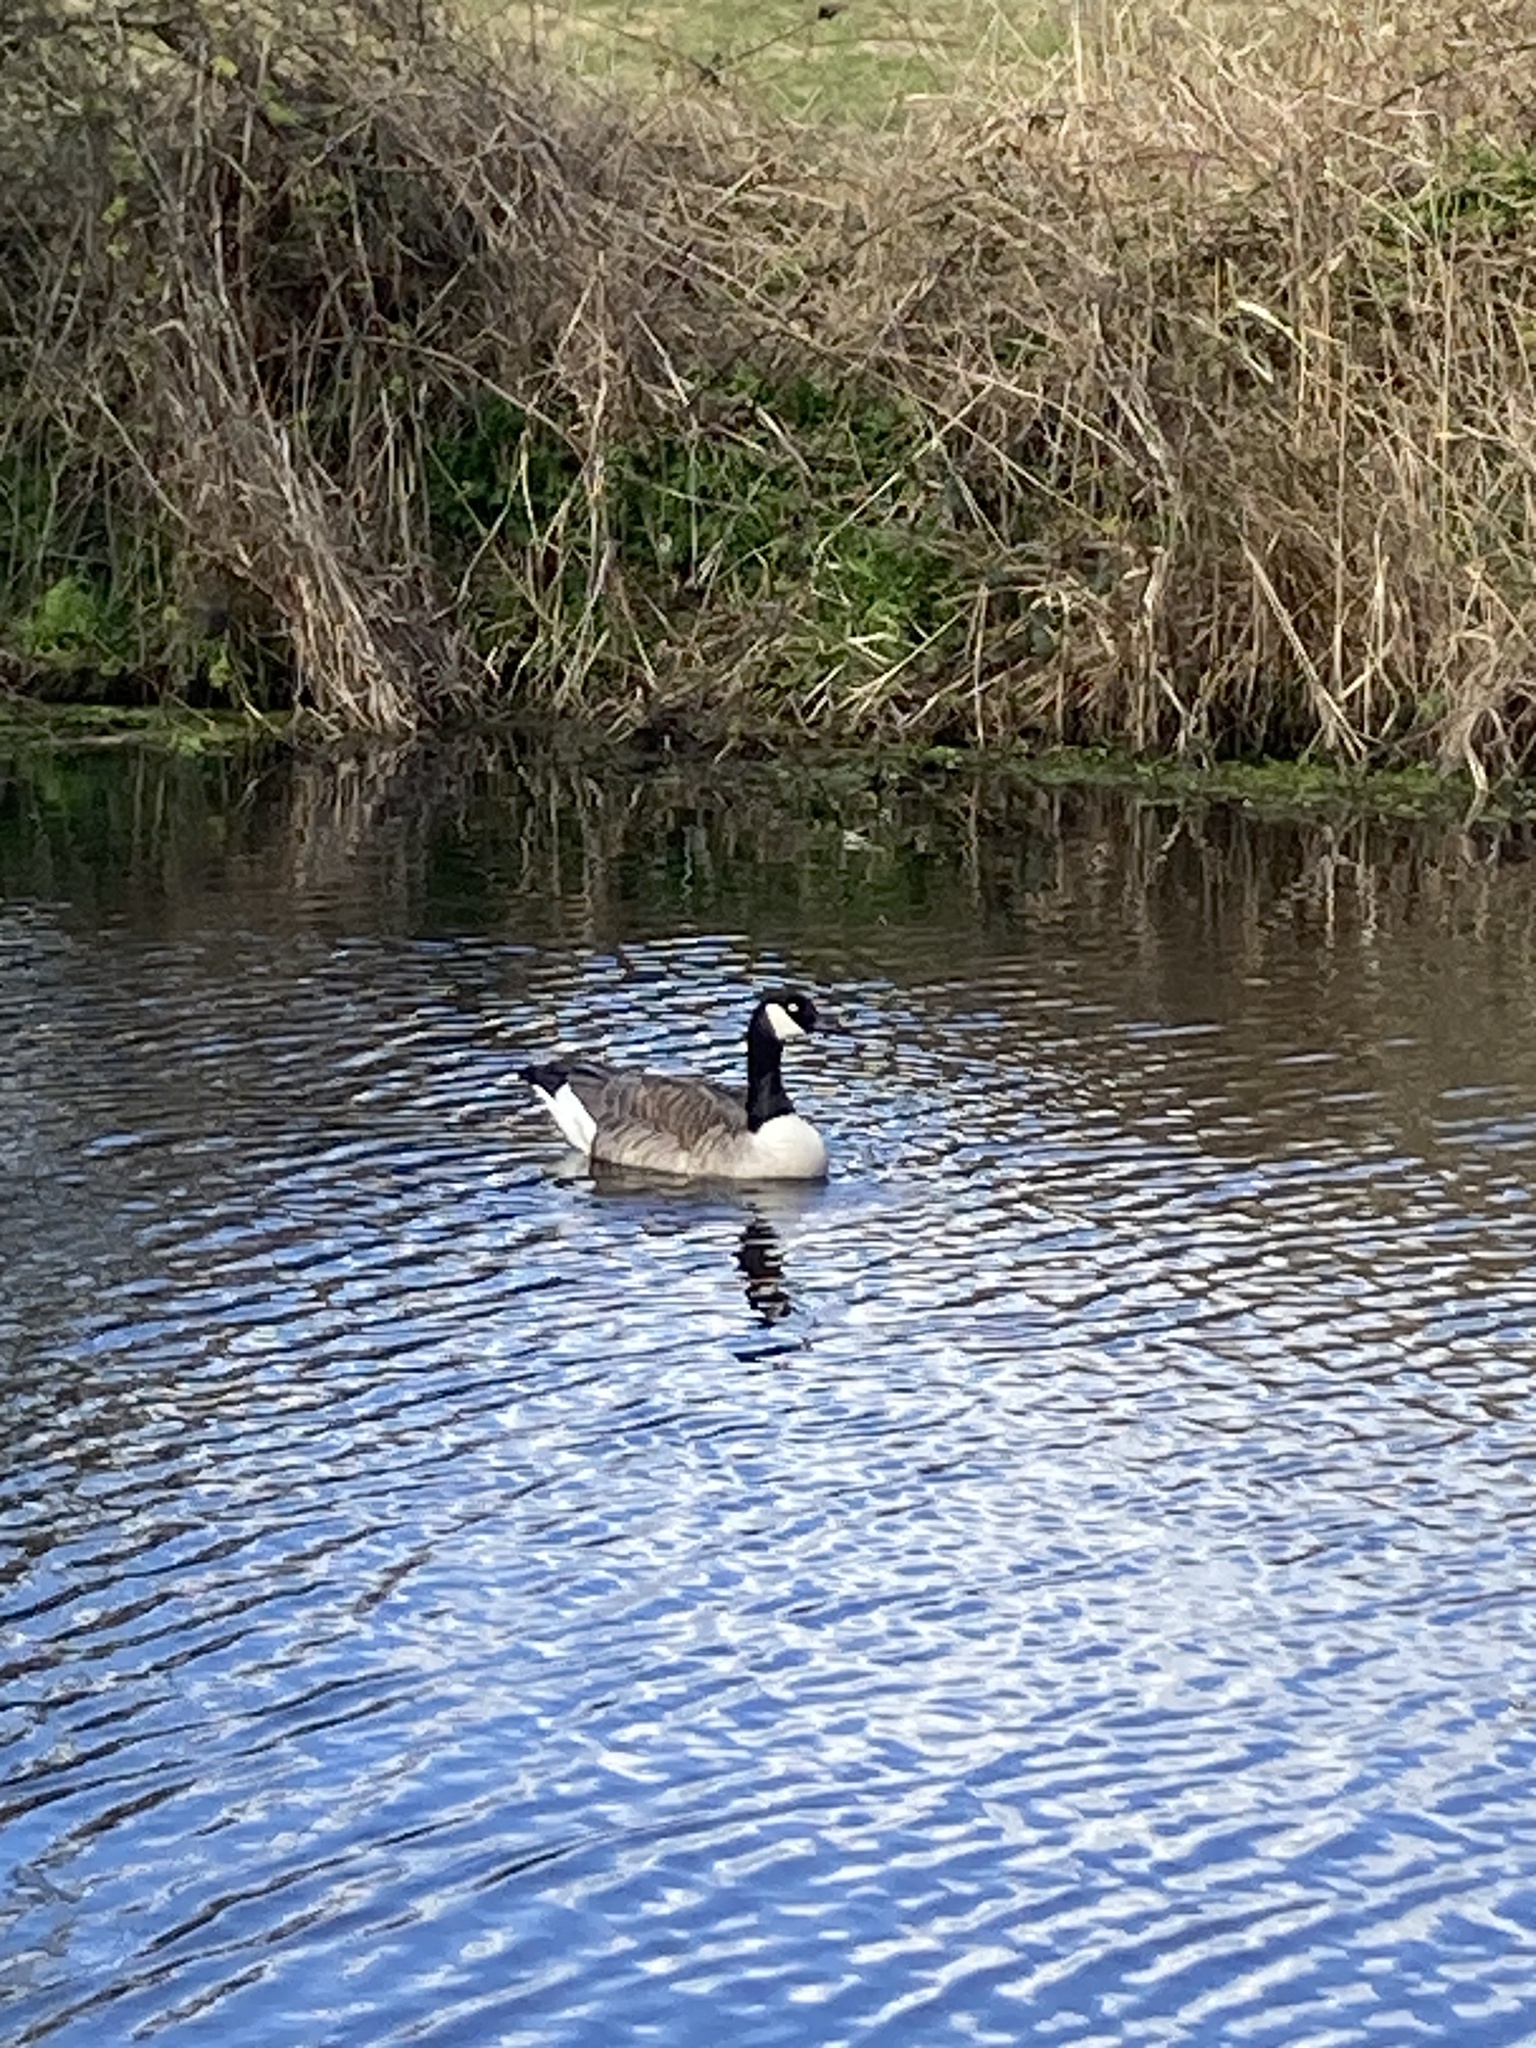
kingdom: Animalia
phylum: Chordata
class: Aves
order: Anseriformes
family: Anatidae
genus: Branta
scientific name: Branta canadensis
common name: Canada goose
